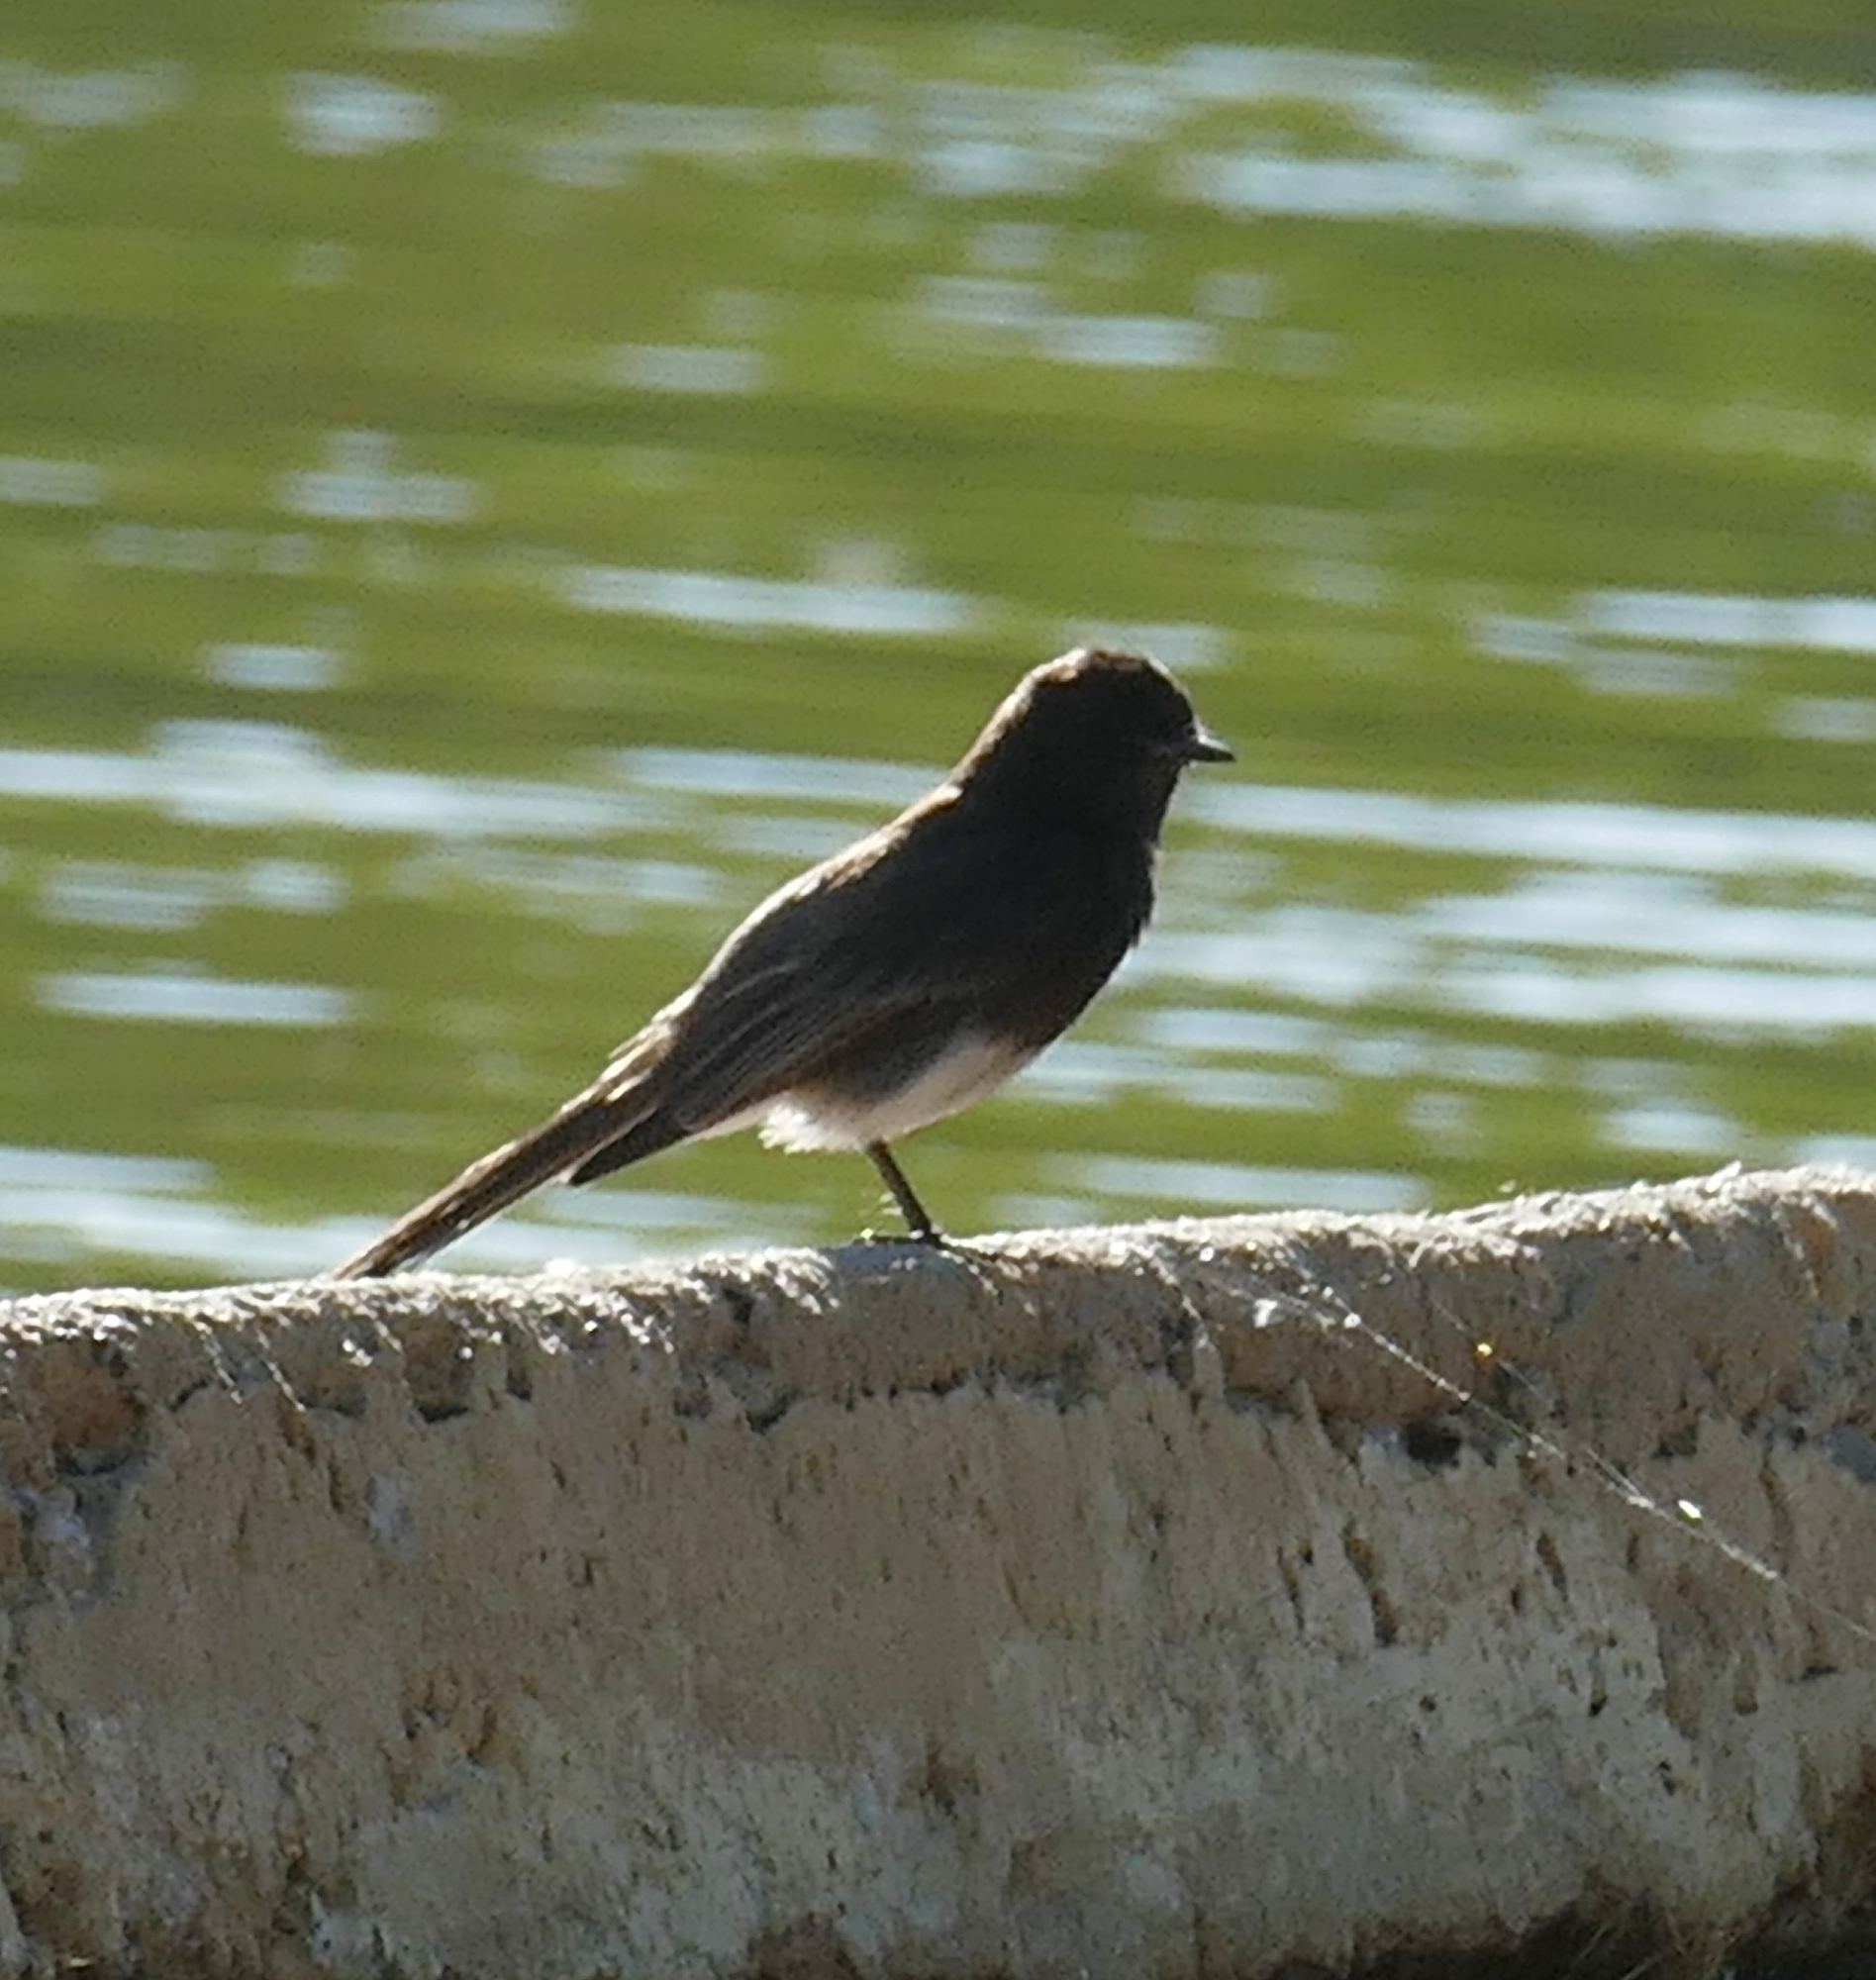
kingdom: Animalia
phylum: Chordata
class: Aves
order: Passeriformes
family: Tyrannidae
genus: Sayornis
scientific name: Sayornis nigricans
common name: Black phoebe
